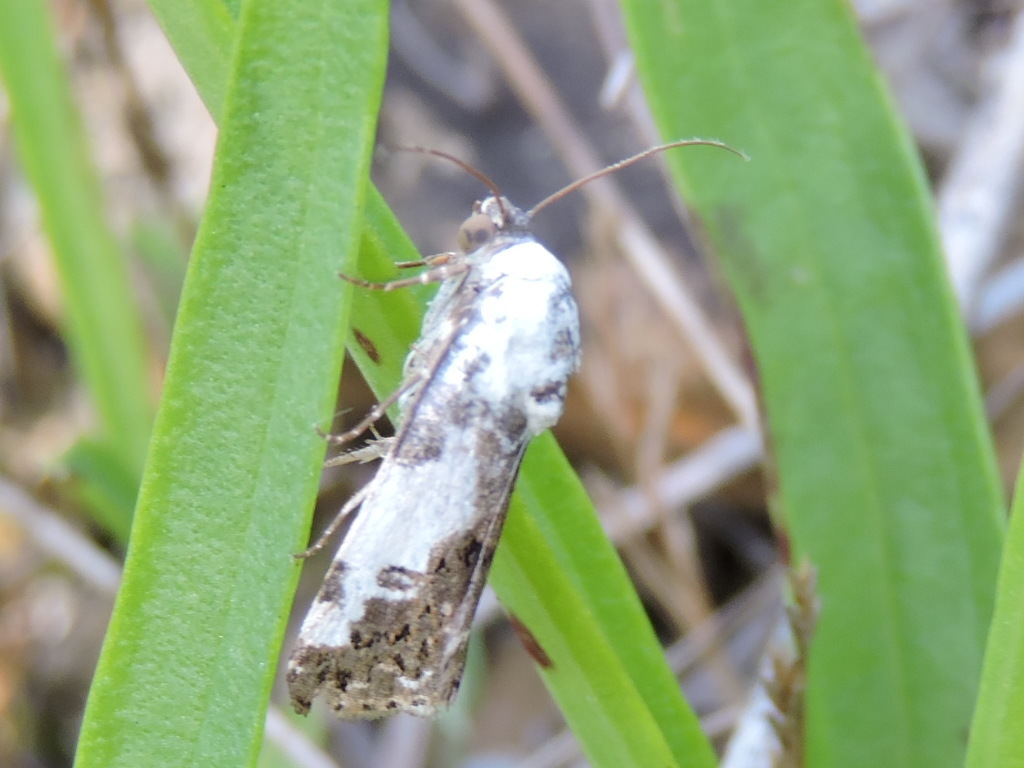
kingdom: Animalia
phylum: Arthropoda
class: Insecta
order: Lepidoptera
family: Noctuidae
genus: Acontia
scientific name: Acontia aprica
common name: Nun
